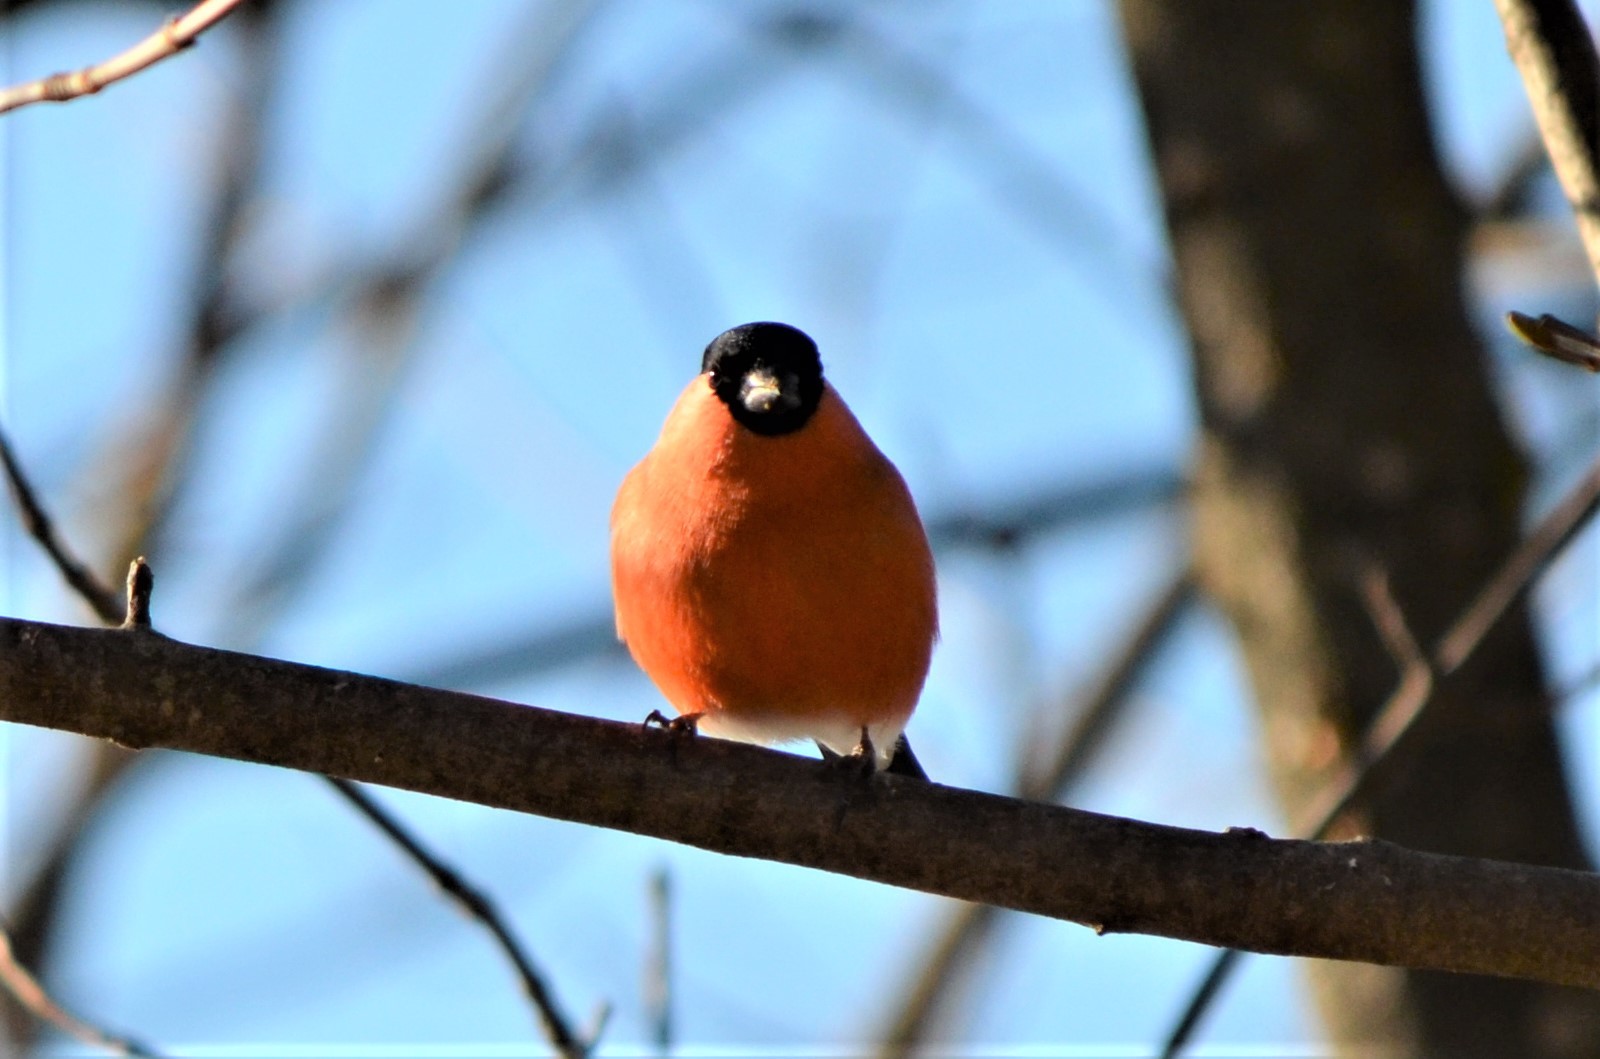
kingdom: Animalia
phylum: Chordata
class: Aves
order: Passeriformes
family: Fringillidae
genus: Pyrrhula
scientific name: Pyrrhula pyrrhula
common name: Eurasian bullfinch
